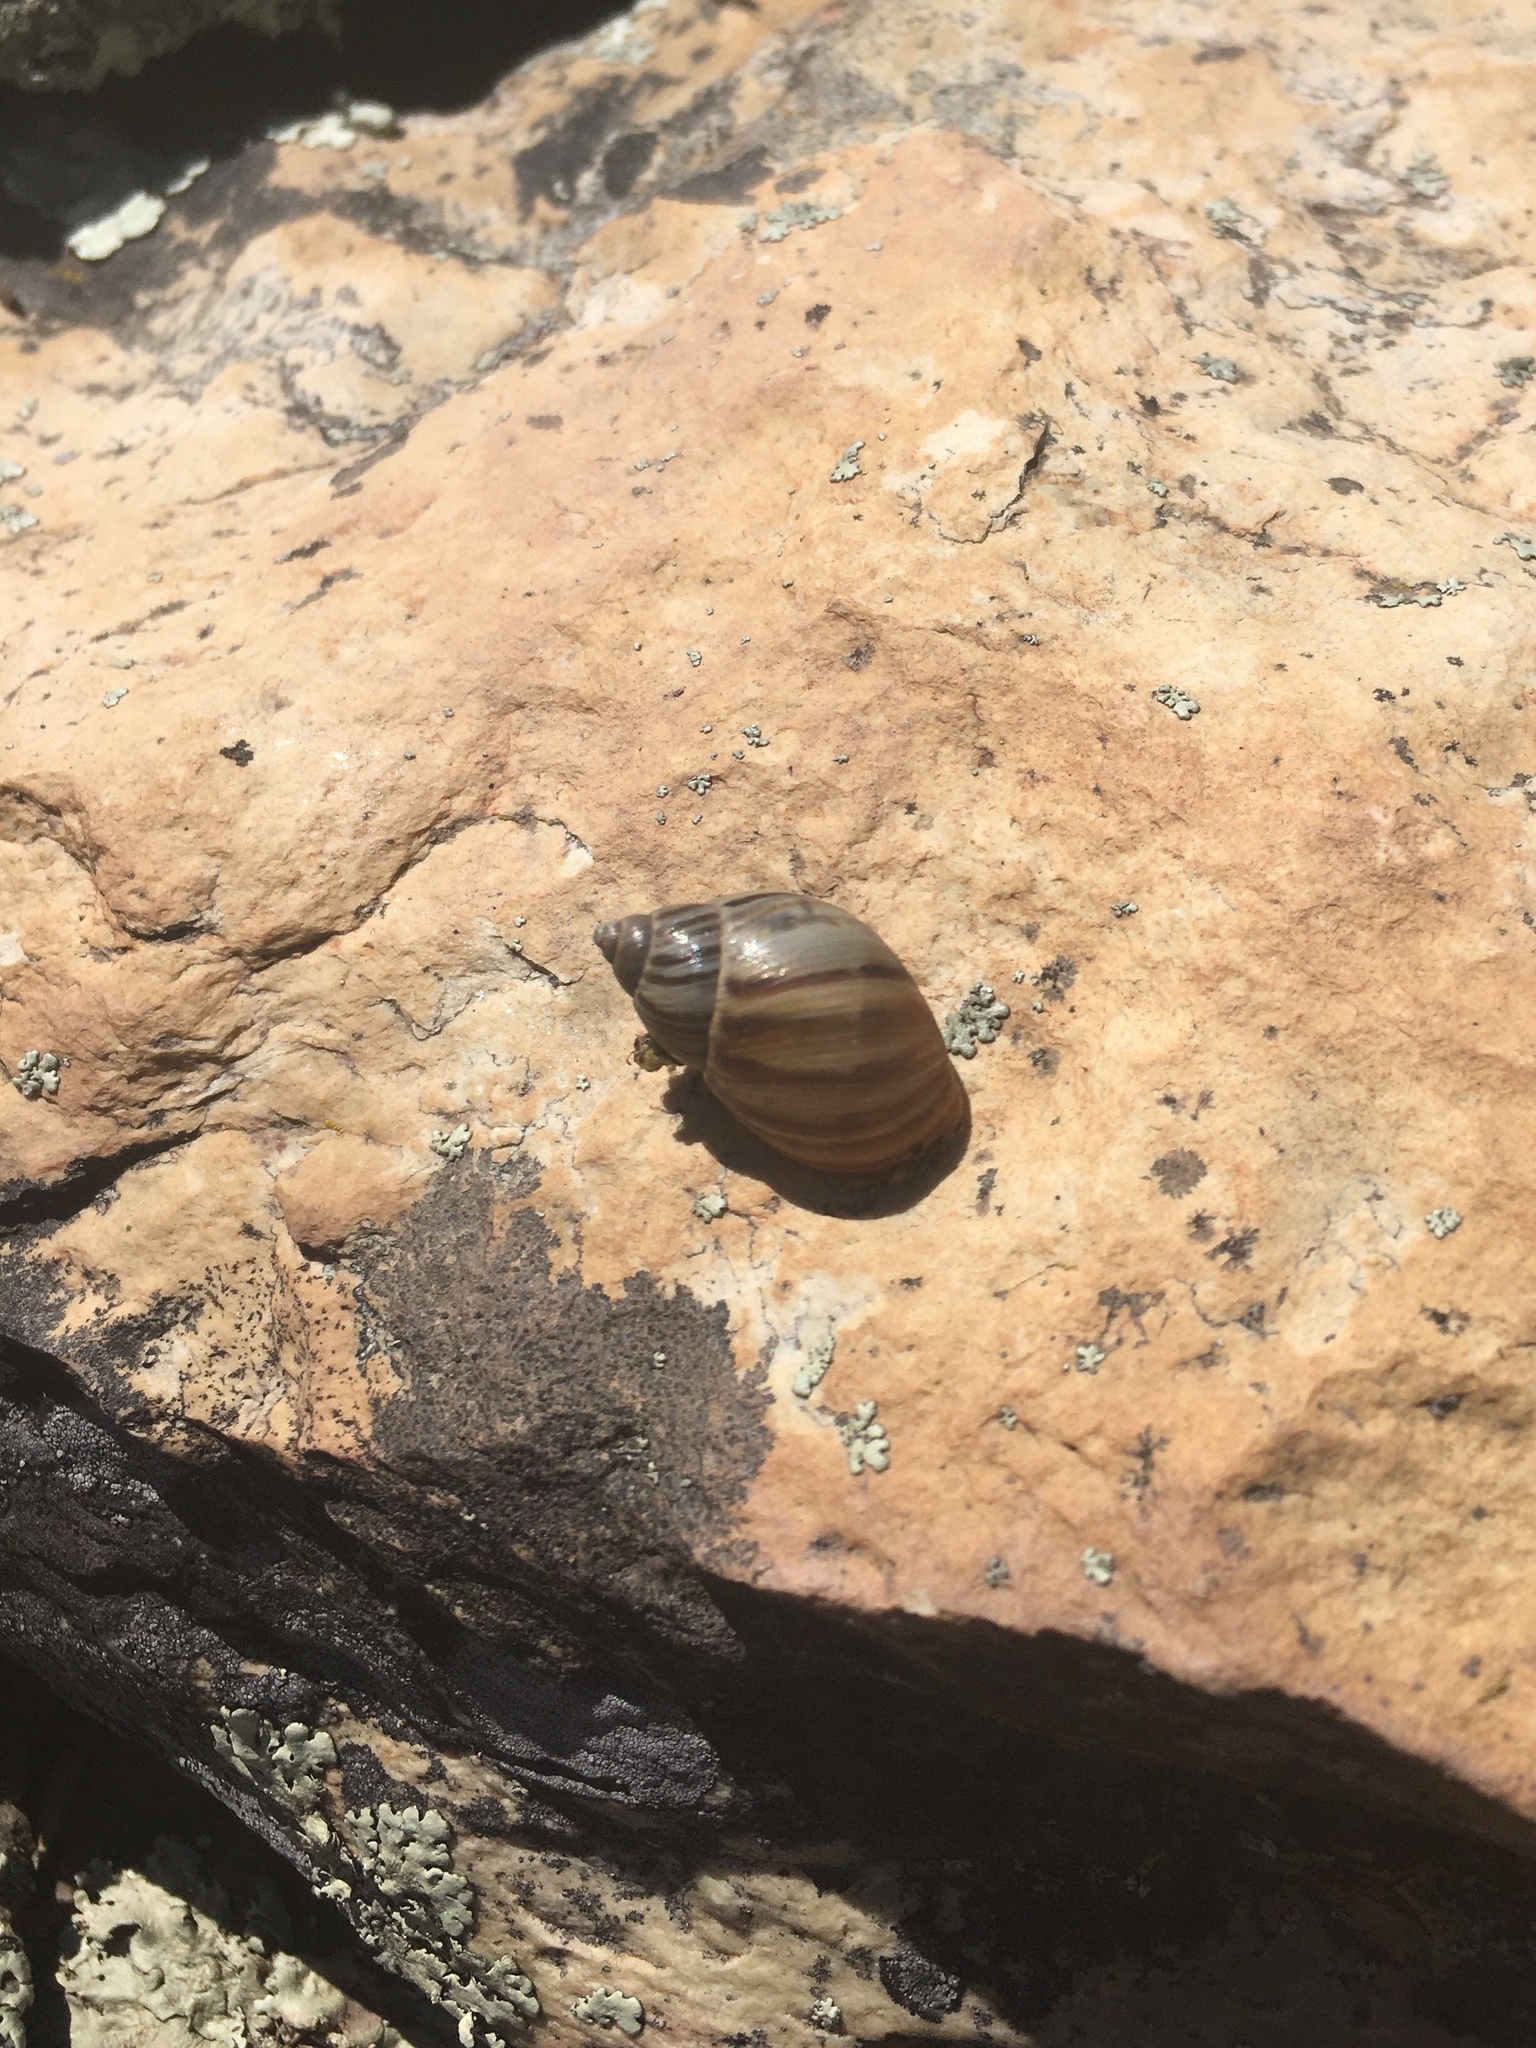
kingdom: Animalia
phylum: Mollusca
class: Gastropoda
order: Stylommatophora
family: Bothriembryontidae
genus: Discoleus
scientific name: Discoleus aguirrei
